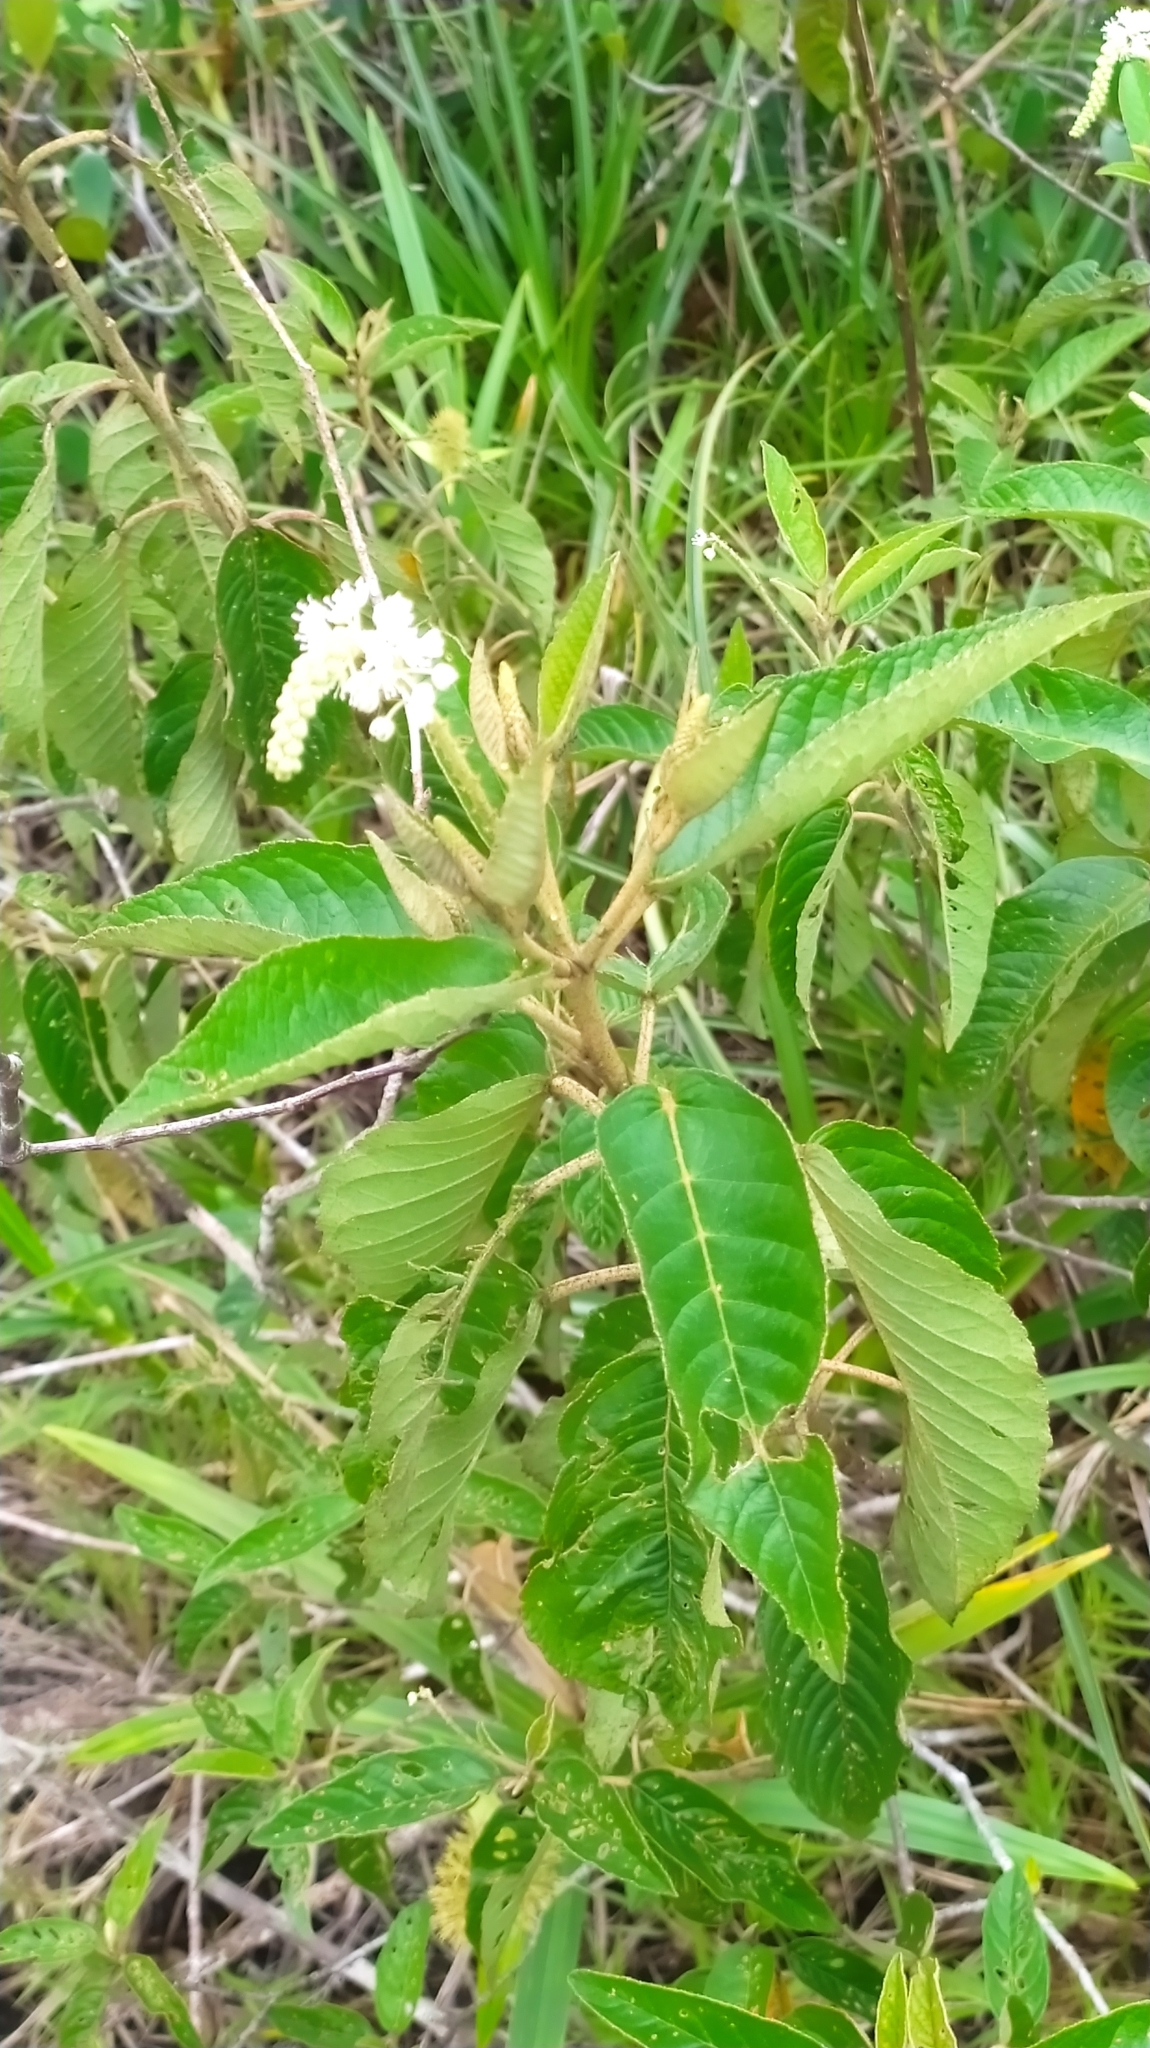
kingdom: Plantae
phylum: Tracheophyta
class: Magnoliopsida
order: Malpighiales
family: Euphorbiaceae
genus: Croton
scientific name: Croton hostmannii
